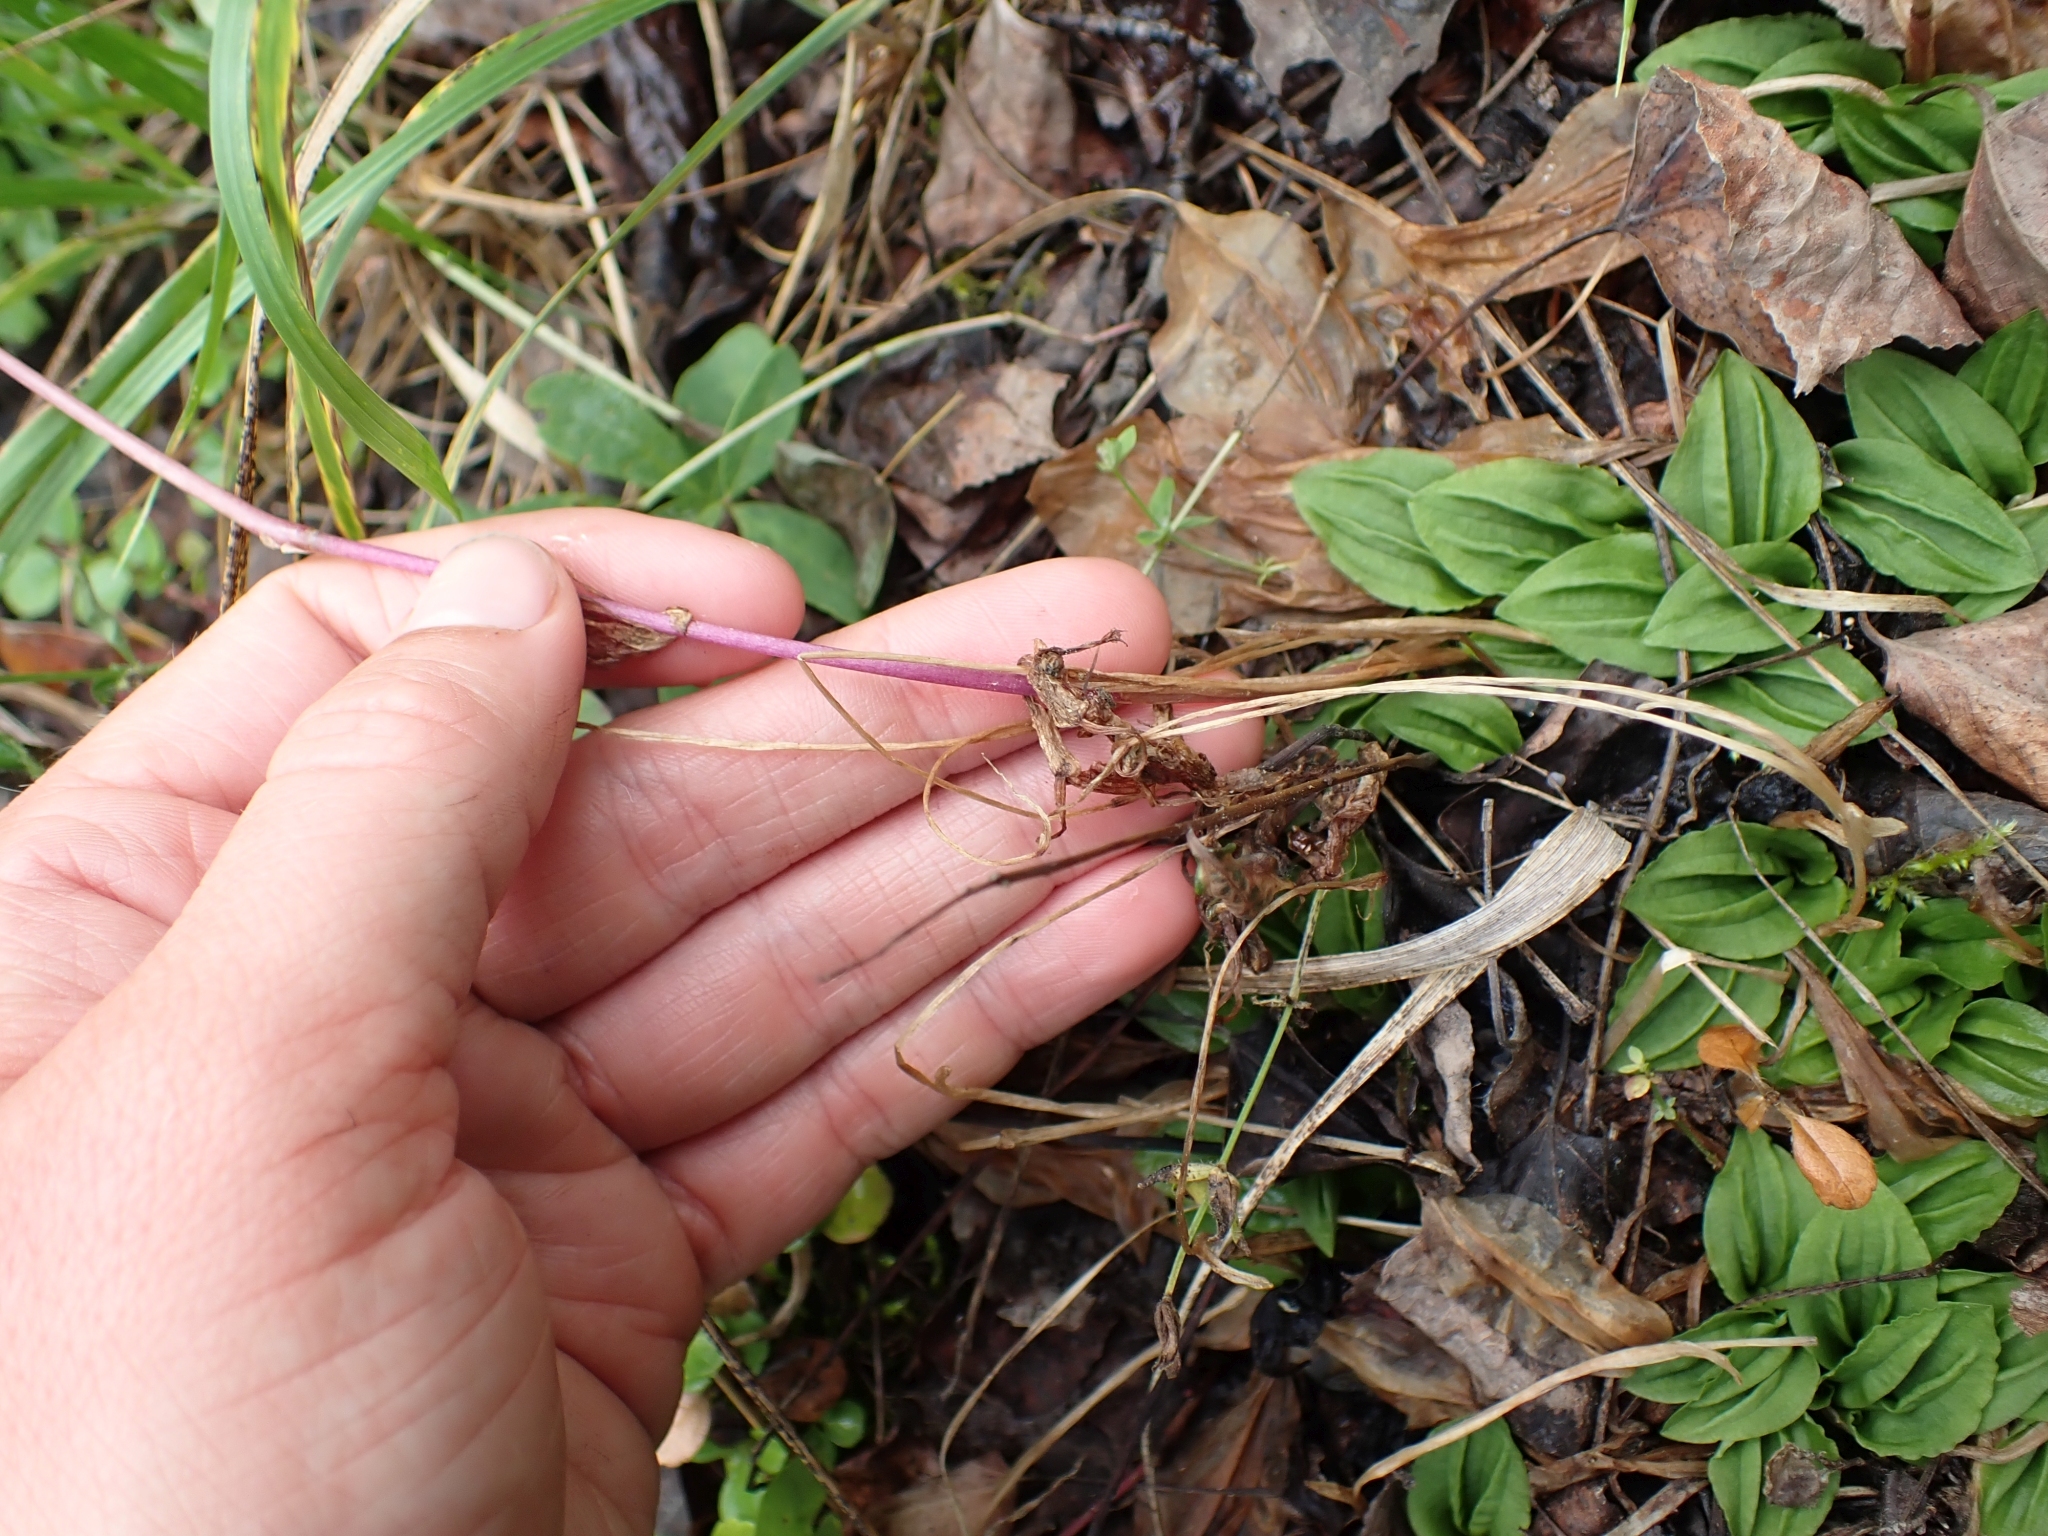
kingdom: Plantae
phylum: Tracheophyta
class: Liliopsida
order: Asparagales
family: Orchidaceae
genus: Calypso
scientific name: Calypso bulbosa
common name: Calypso
